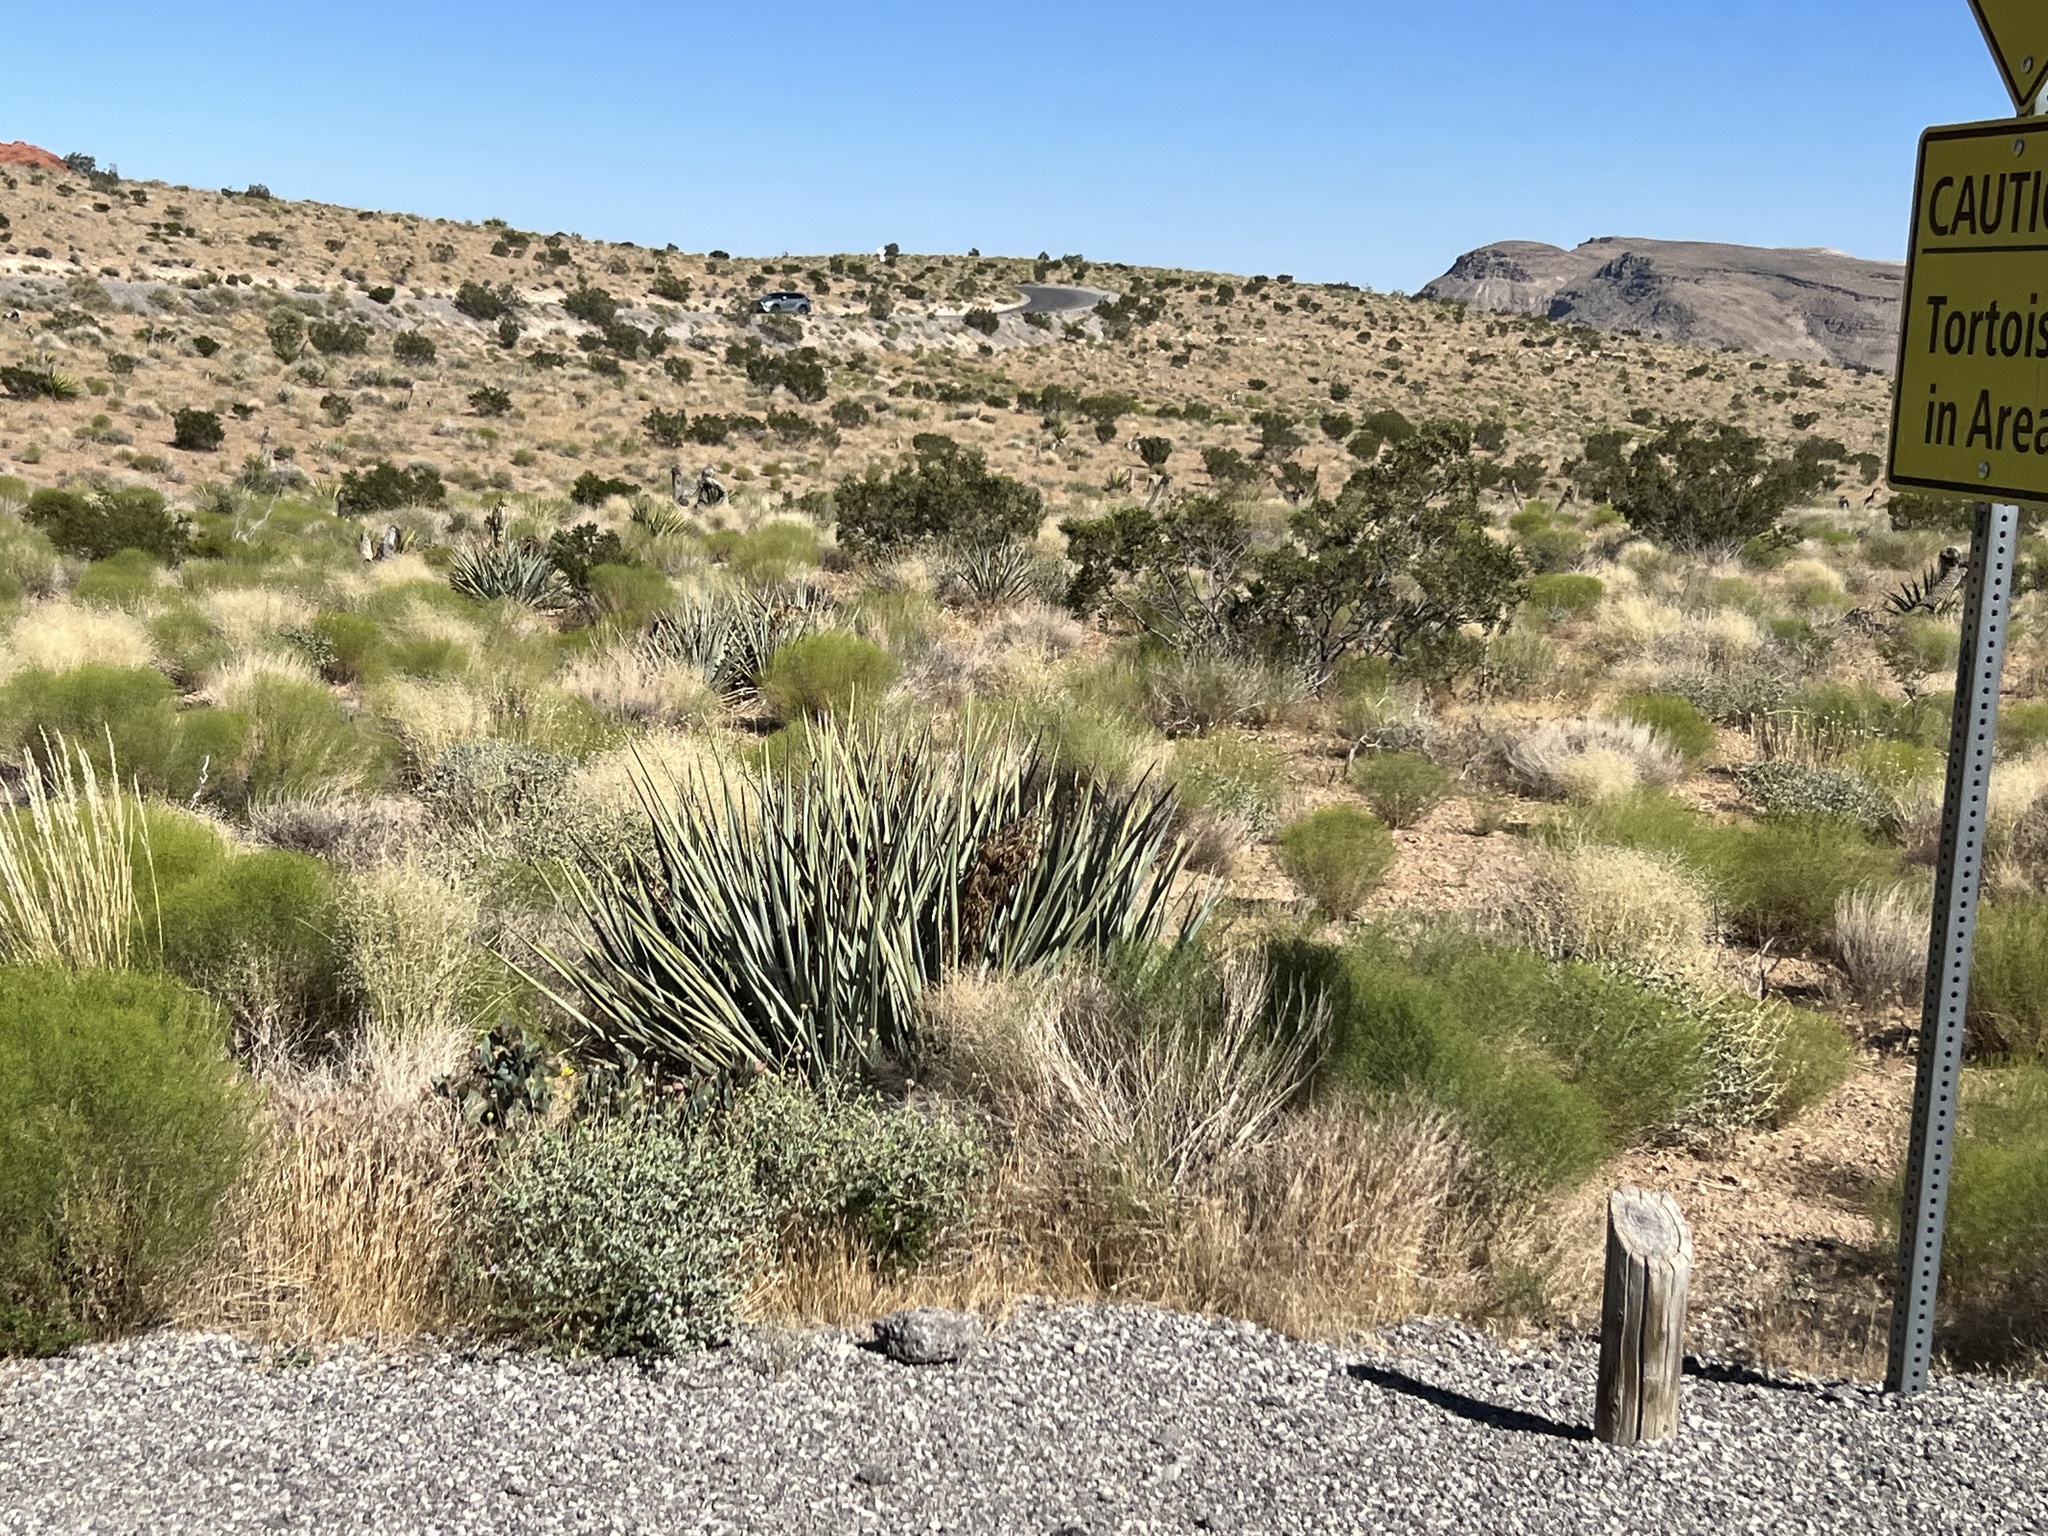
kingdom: Plantae
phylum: Tracheophyta
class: Liliopsida
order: Asparagales
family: Asparagaceae
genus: Yucca
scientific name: Yucca baccata
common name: Banana yucca
